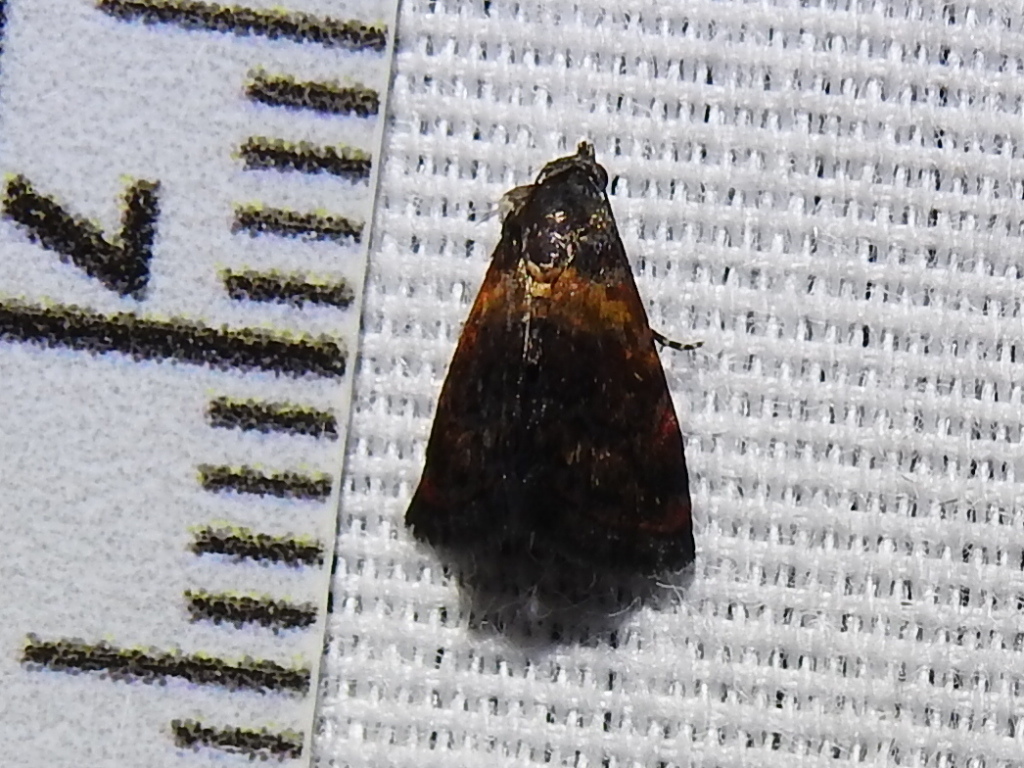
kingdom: Animalia
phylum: Arthropoda
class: Insecta
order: Lepidoptera
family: Noctuidae
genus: Tripudia
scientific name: Tripudia flavofasciata
